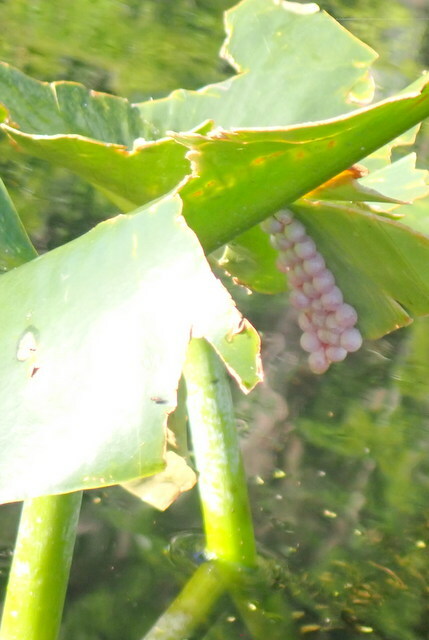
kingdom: Animalia
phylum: Mollusca
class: Gastropoda
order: Architaenioglossa
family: Ampullariidae
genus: Pomacea
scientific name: Pomacea paludosa
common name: Florida applesnail
